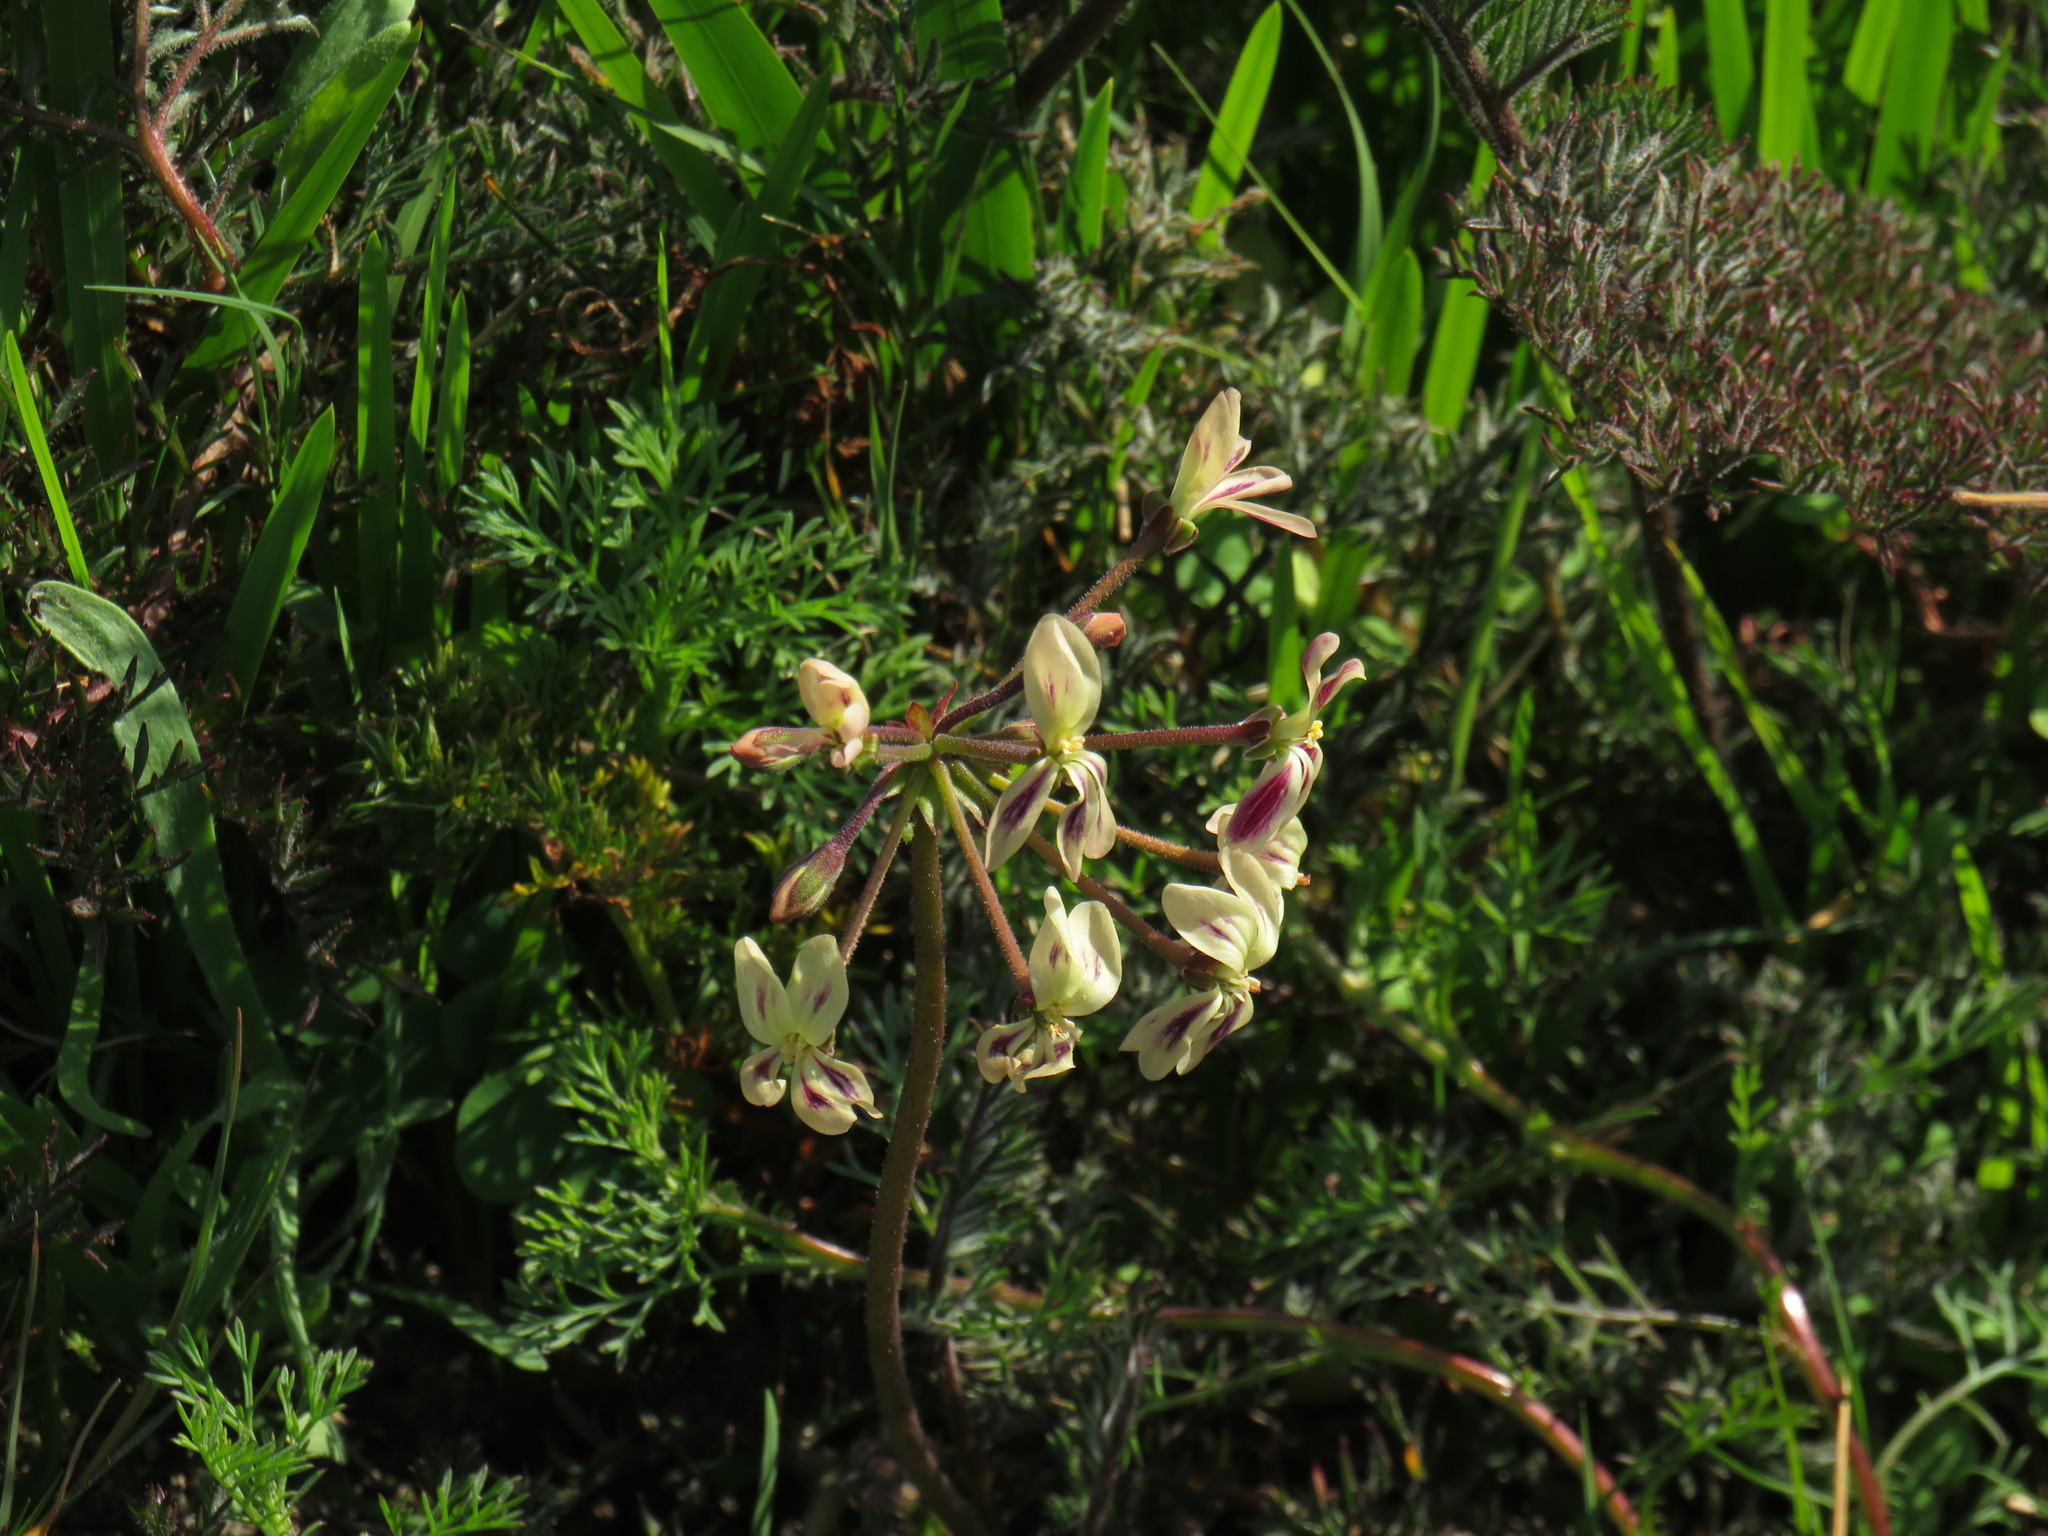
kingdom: Plantae
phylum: Tracheophyta
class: Magnoliopsida
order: Geraniales
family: Geraniaceae
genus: Pelargonium
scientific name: Pelargonium triste
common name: Night-scent pelargonium
